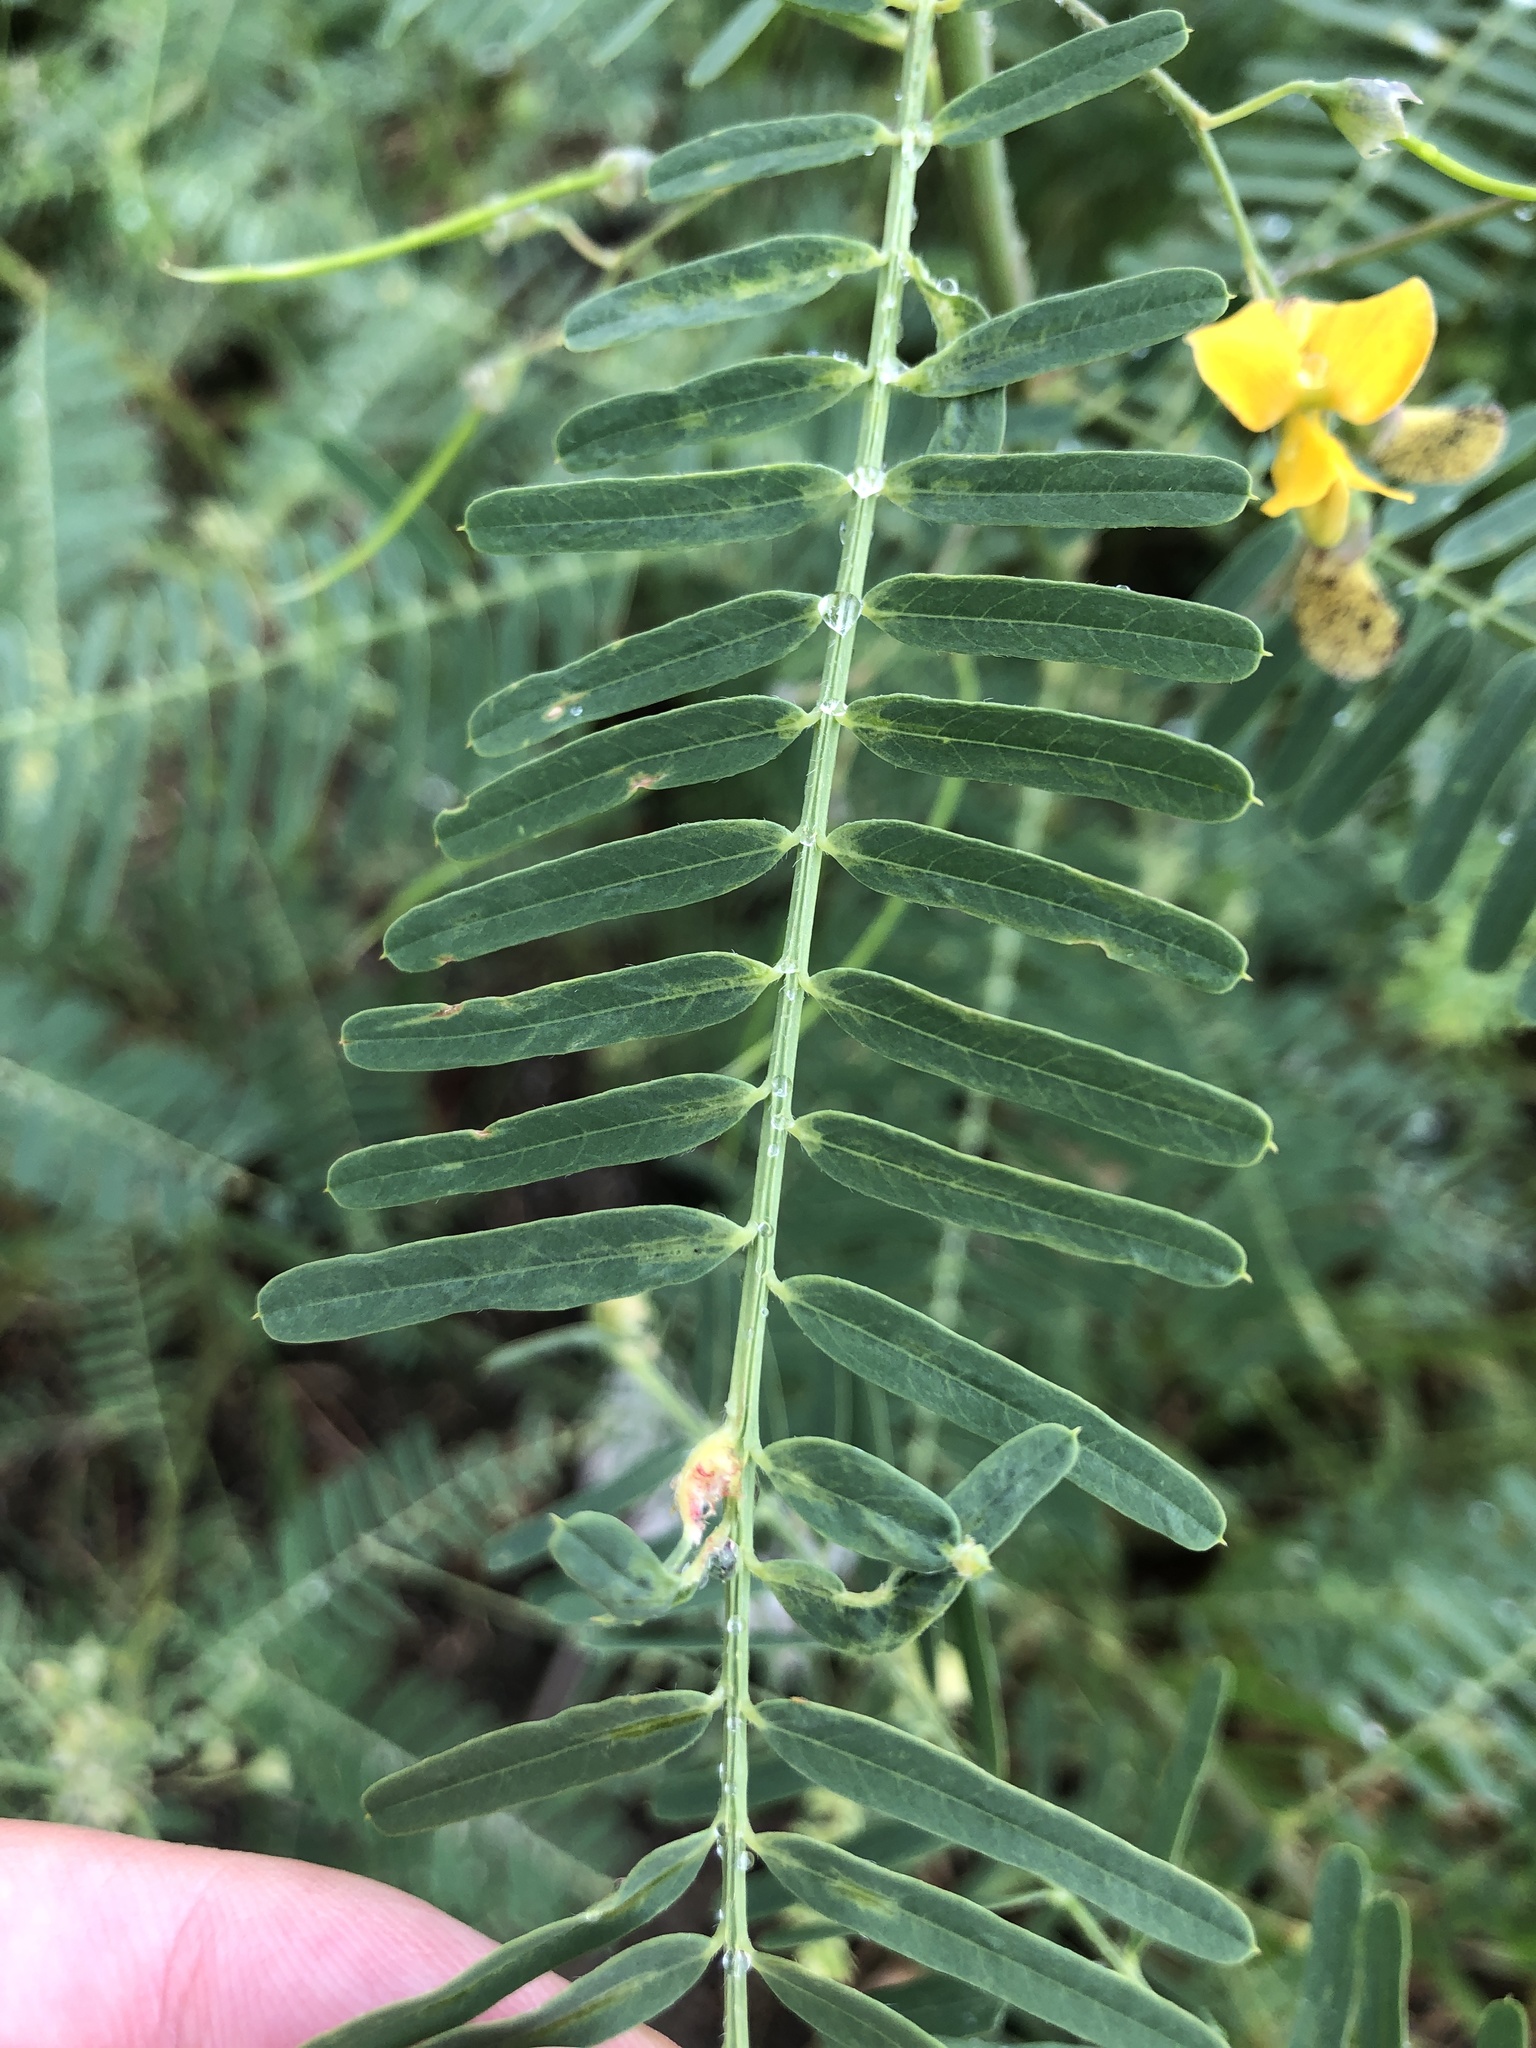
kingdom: Plantae
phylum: Tracheophyta
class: Magnoliopsida
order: Fabales
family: Fabaceae
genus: Sesbania
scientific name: Sesbania cannabina
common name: Canicha
